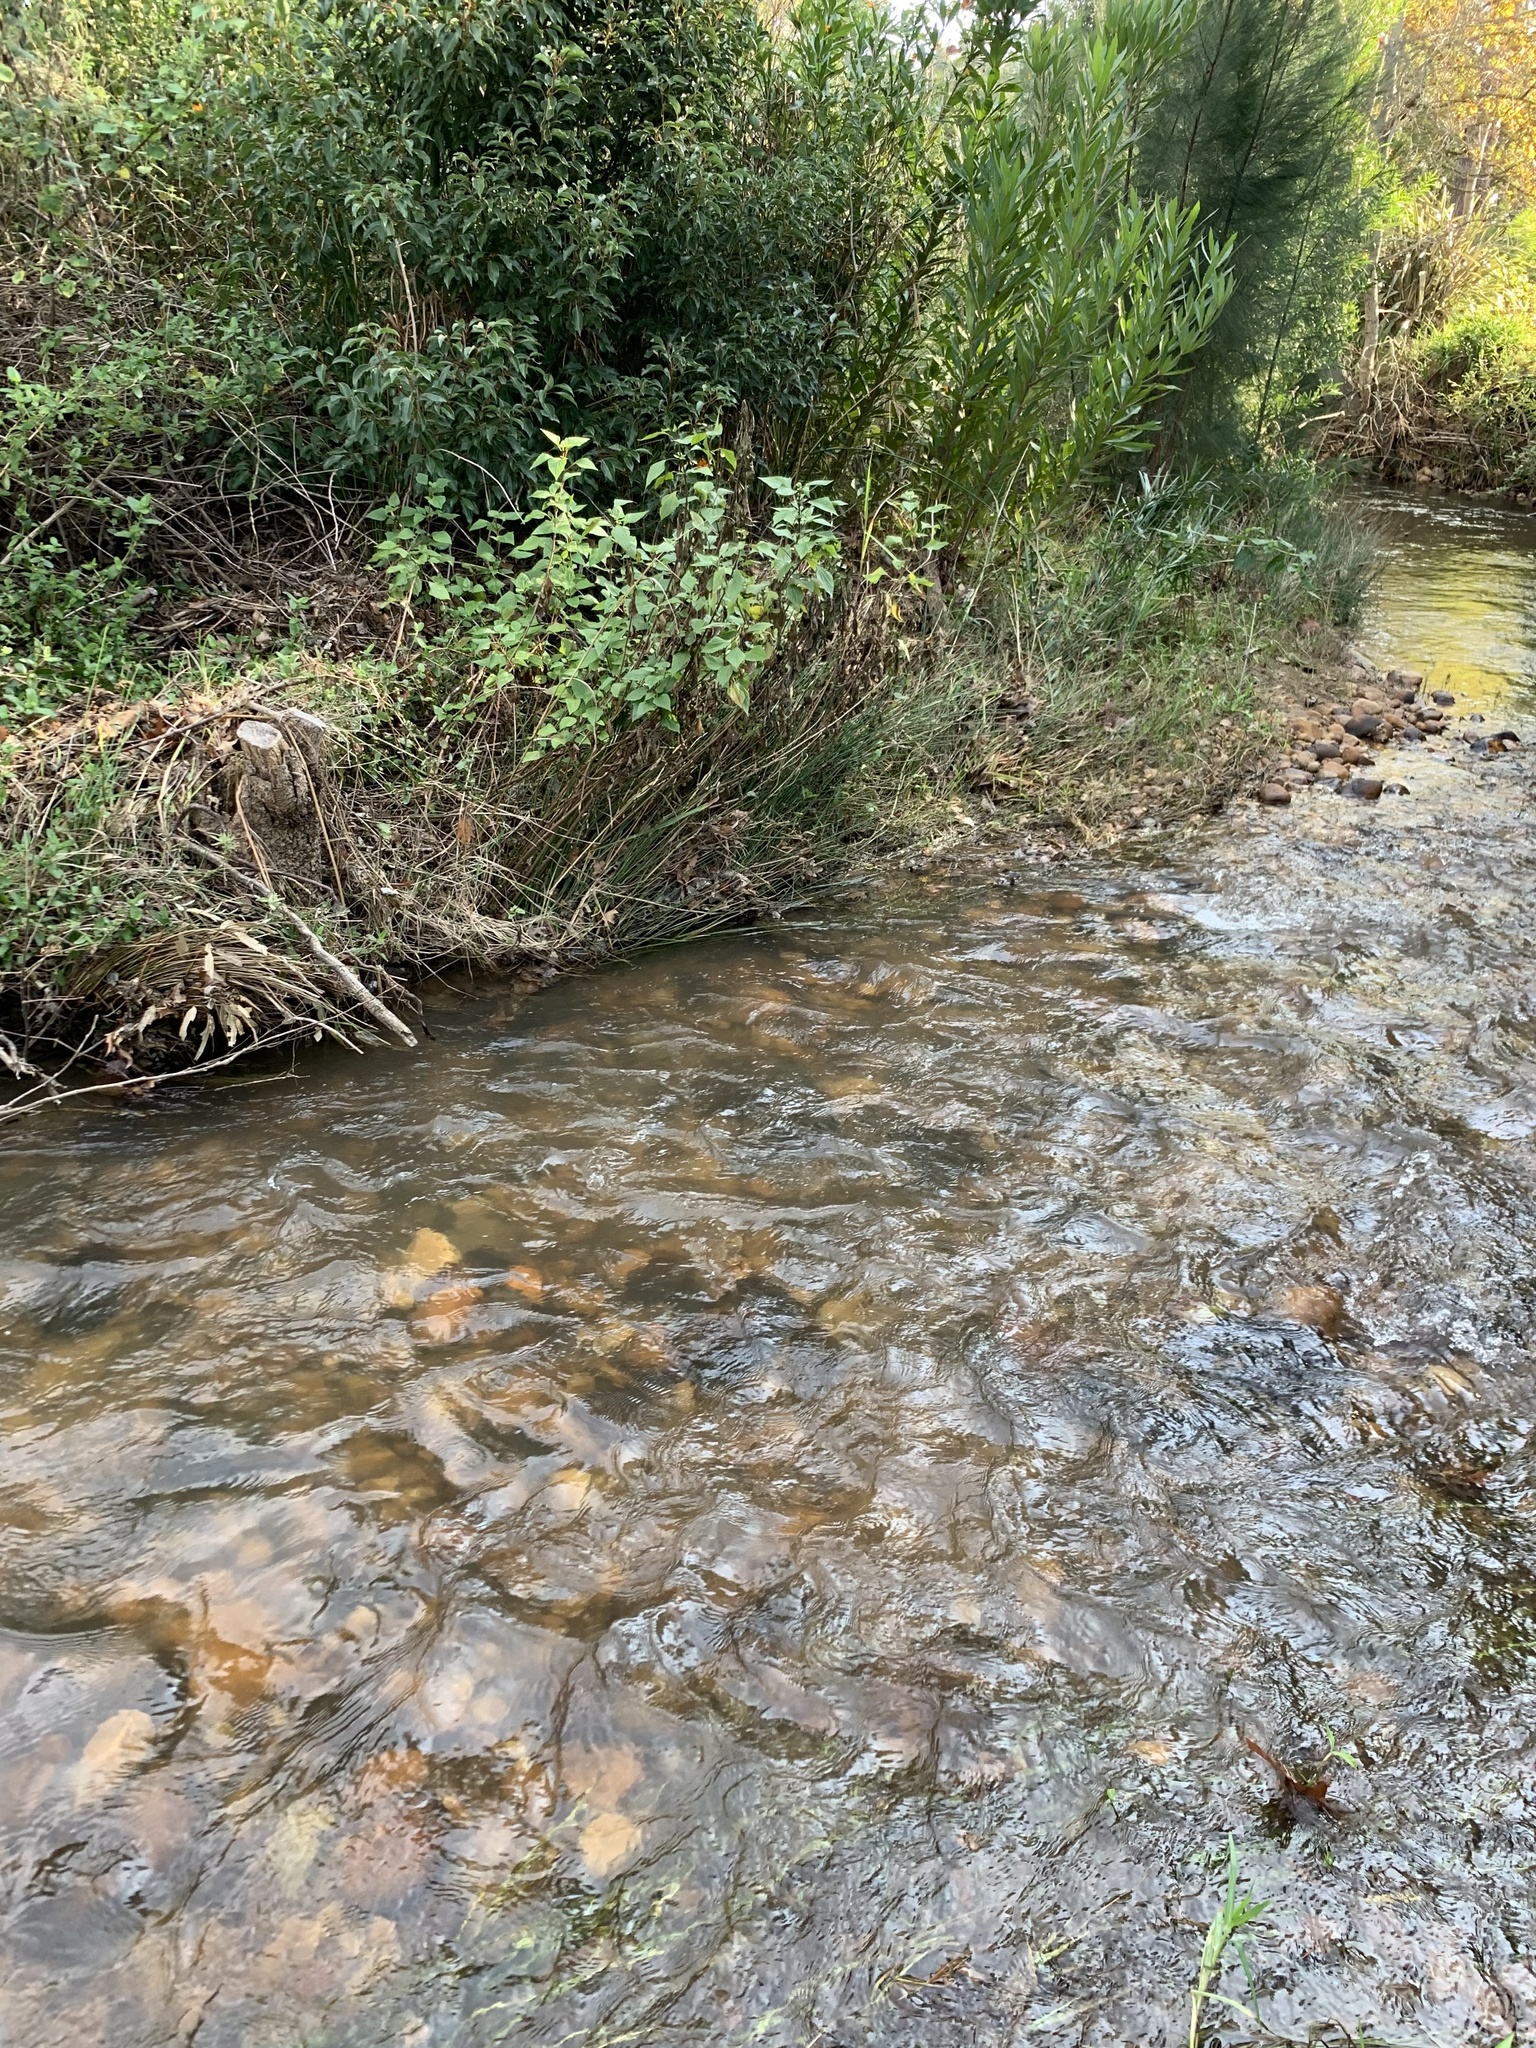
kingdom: Plantae
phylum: Tracheophyta
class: Magnoliopsida
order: Asterales
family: Asteraceae
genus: Ageratina
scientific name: Ageratina adenophora
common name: Sticky snakeroot
